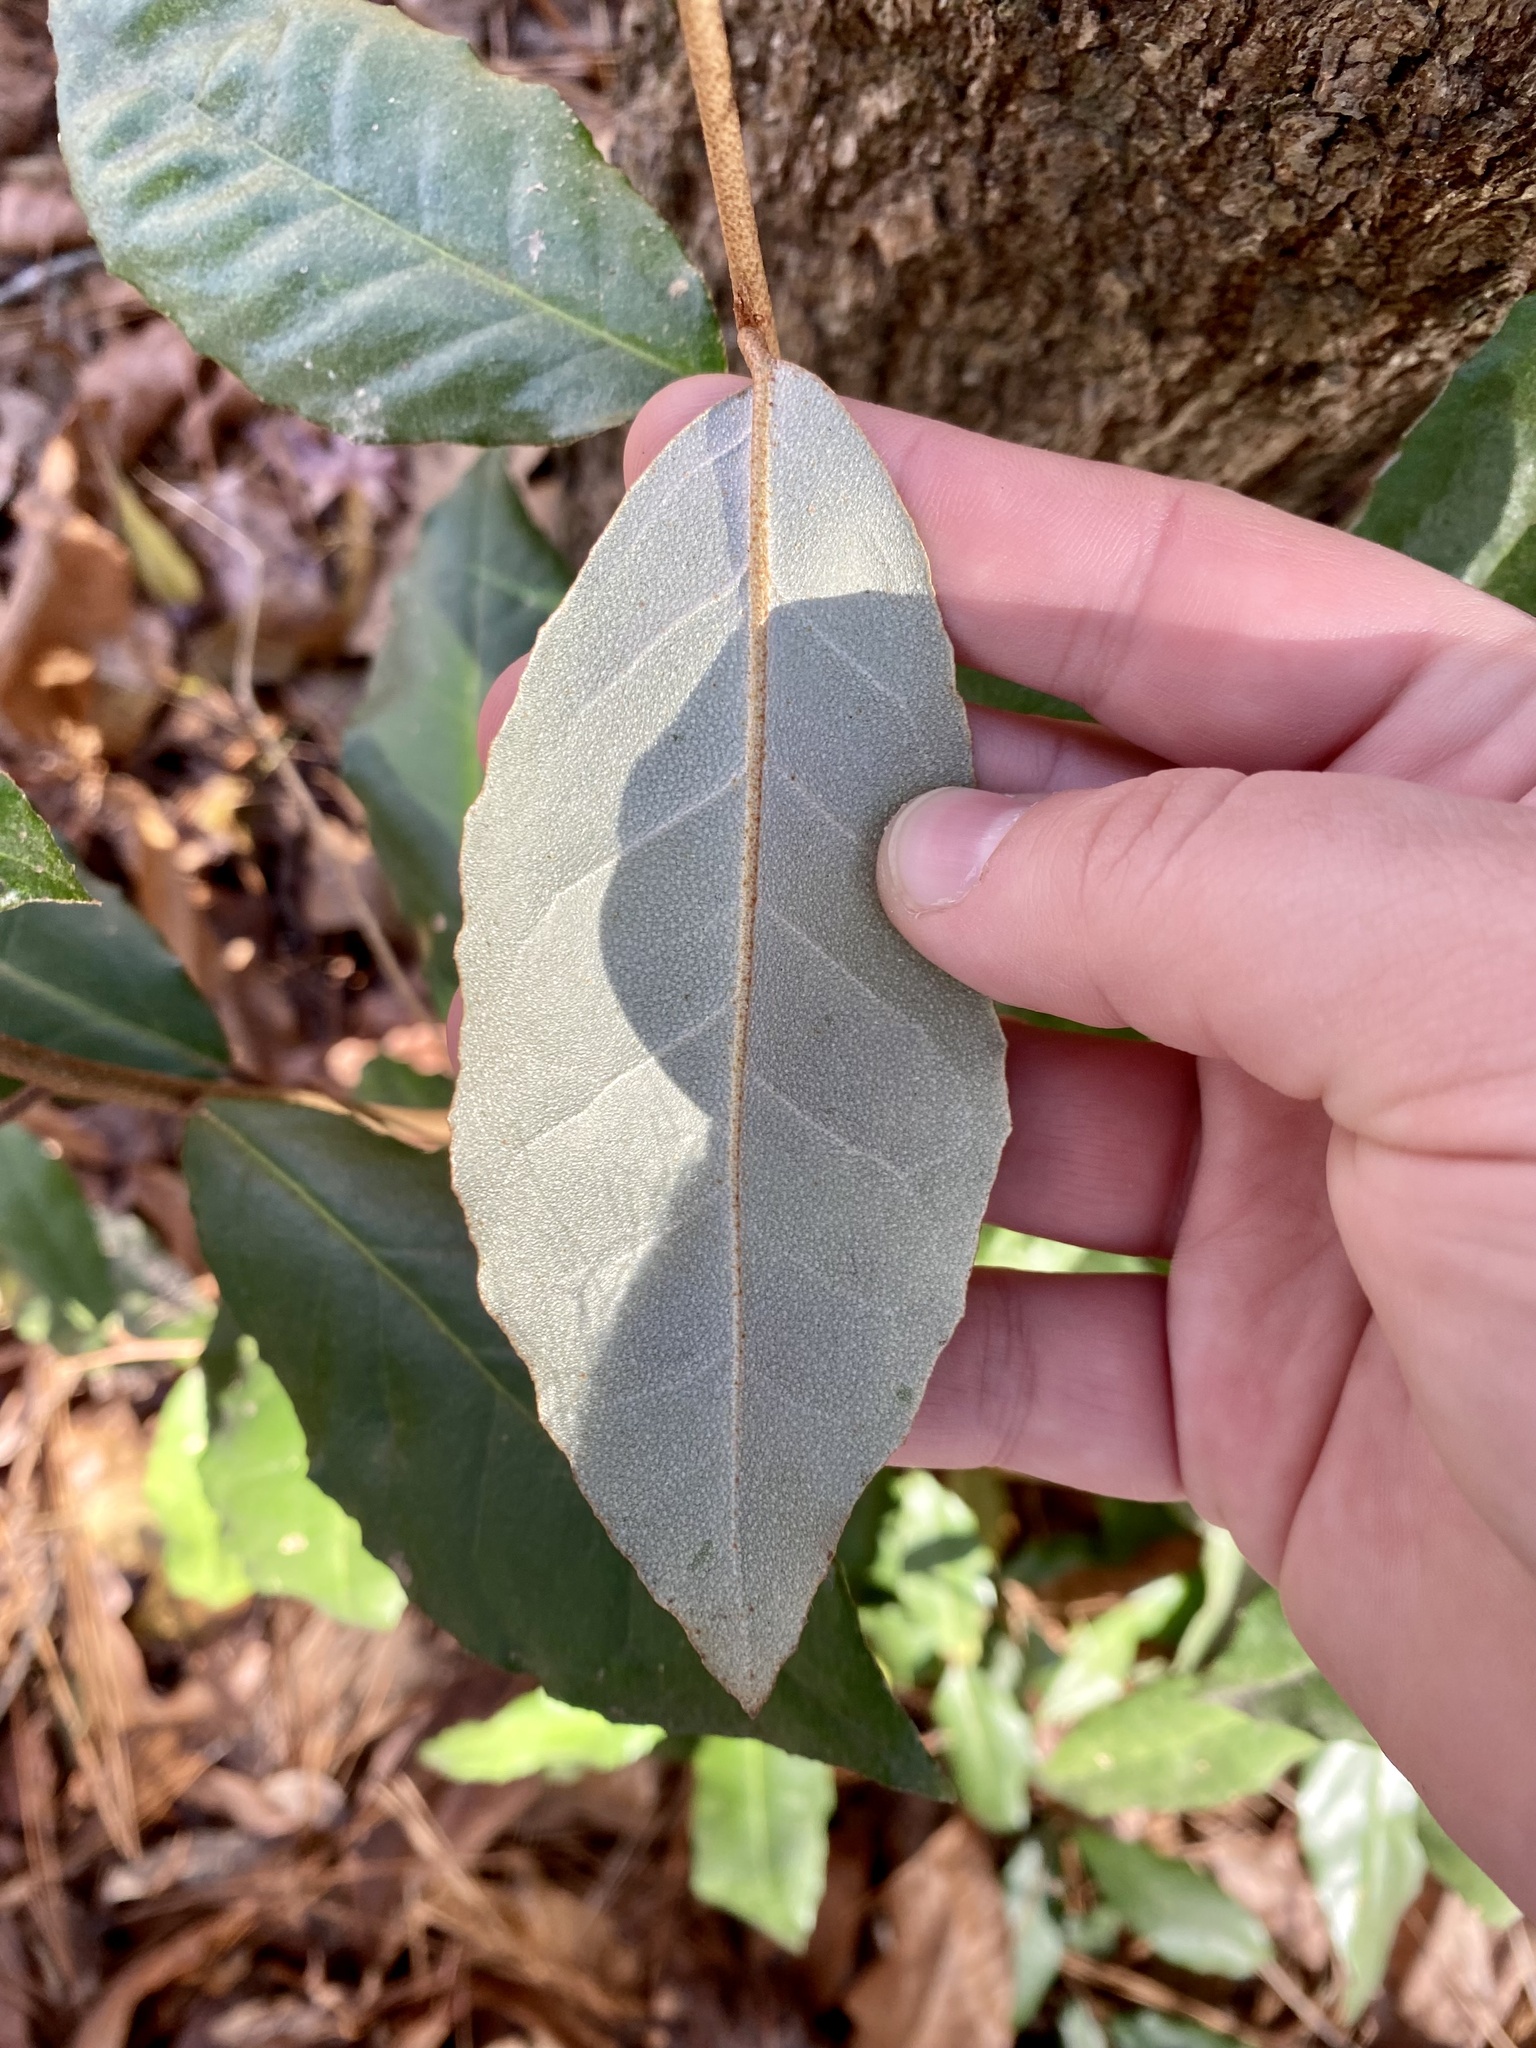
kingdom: Plantae
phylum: Tracheophyta
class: Magnoliopsida
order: Rosales
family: Elaeagnaceae
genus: Elaeagnus
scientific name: Elaeagnus pungens
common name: Spiny oleaster
